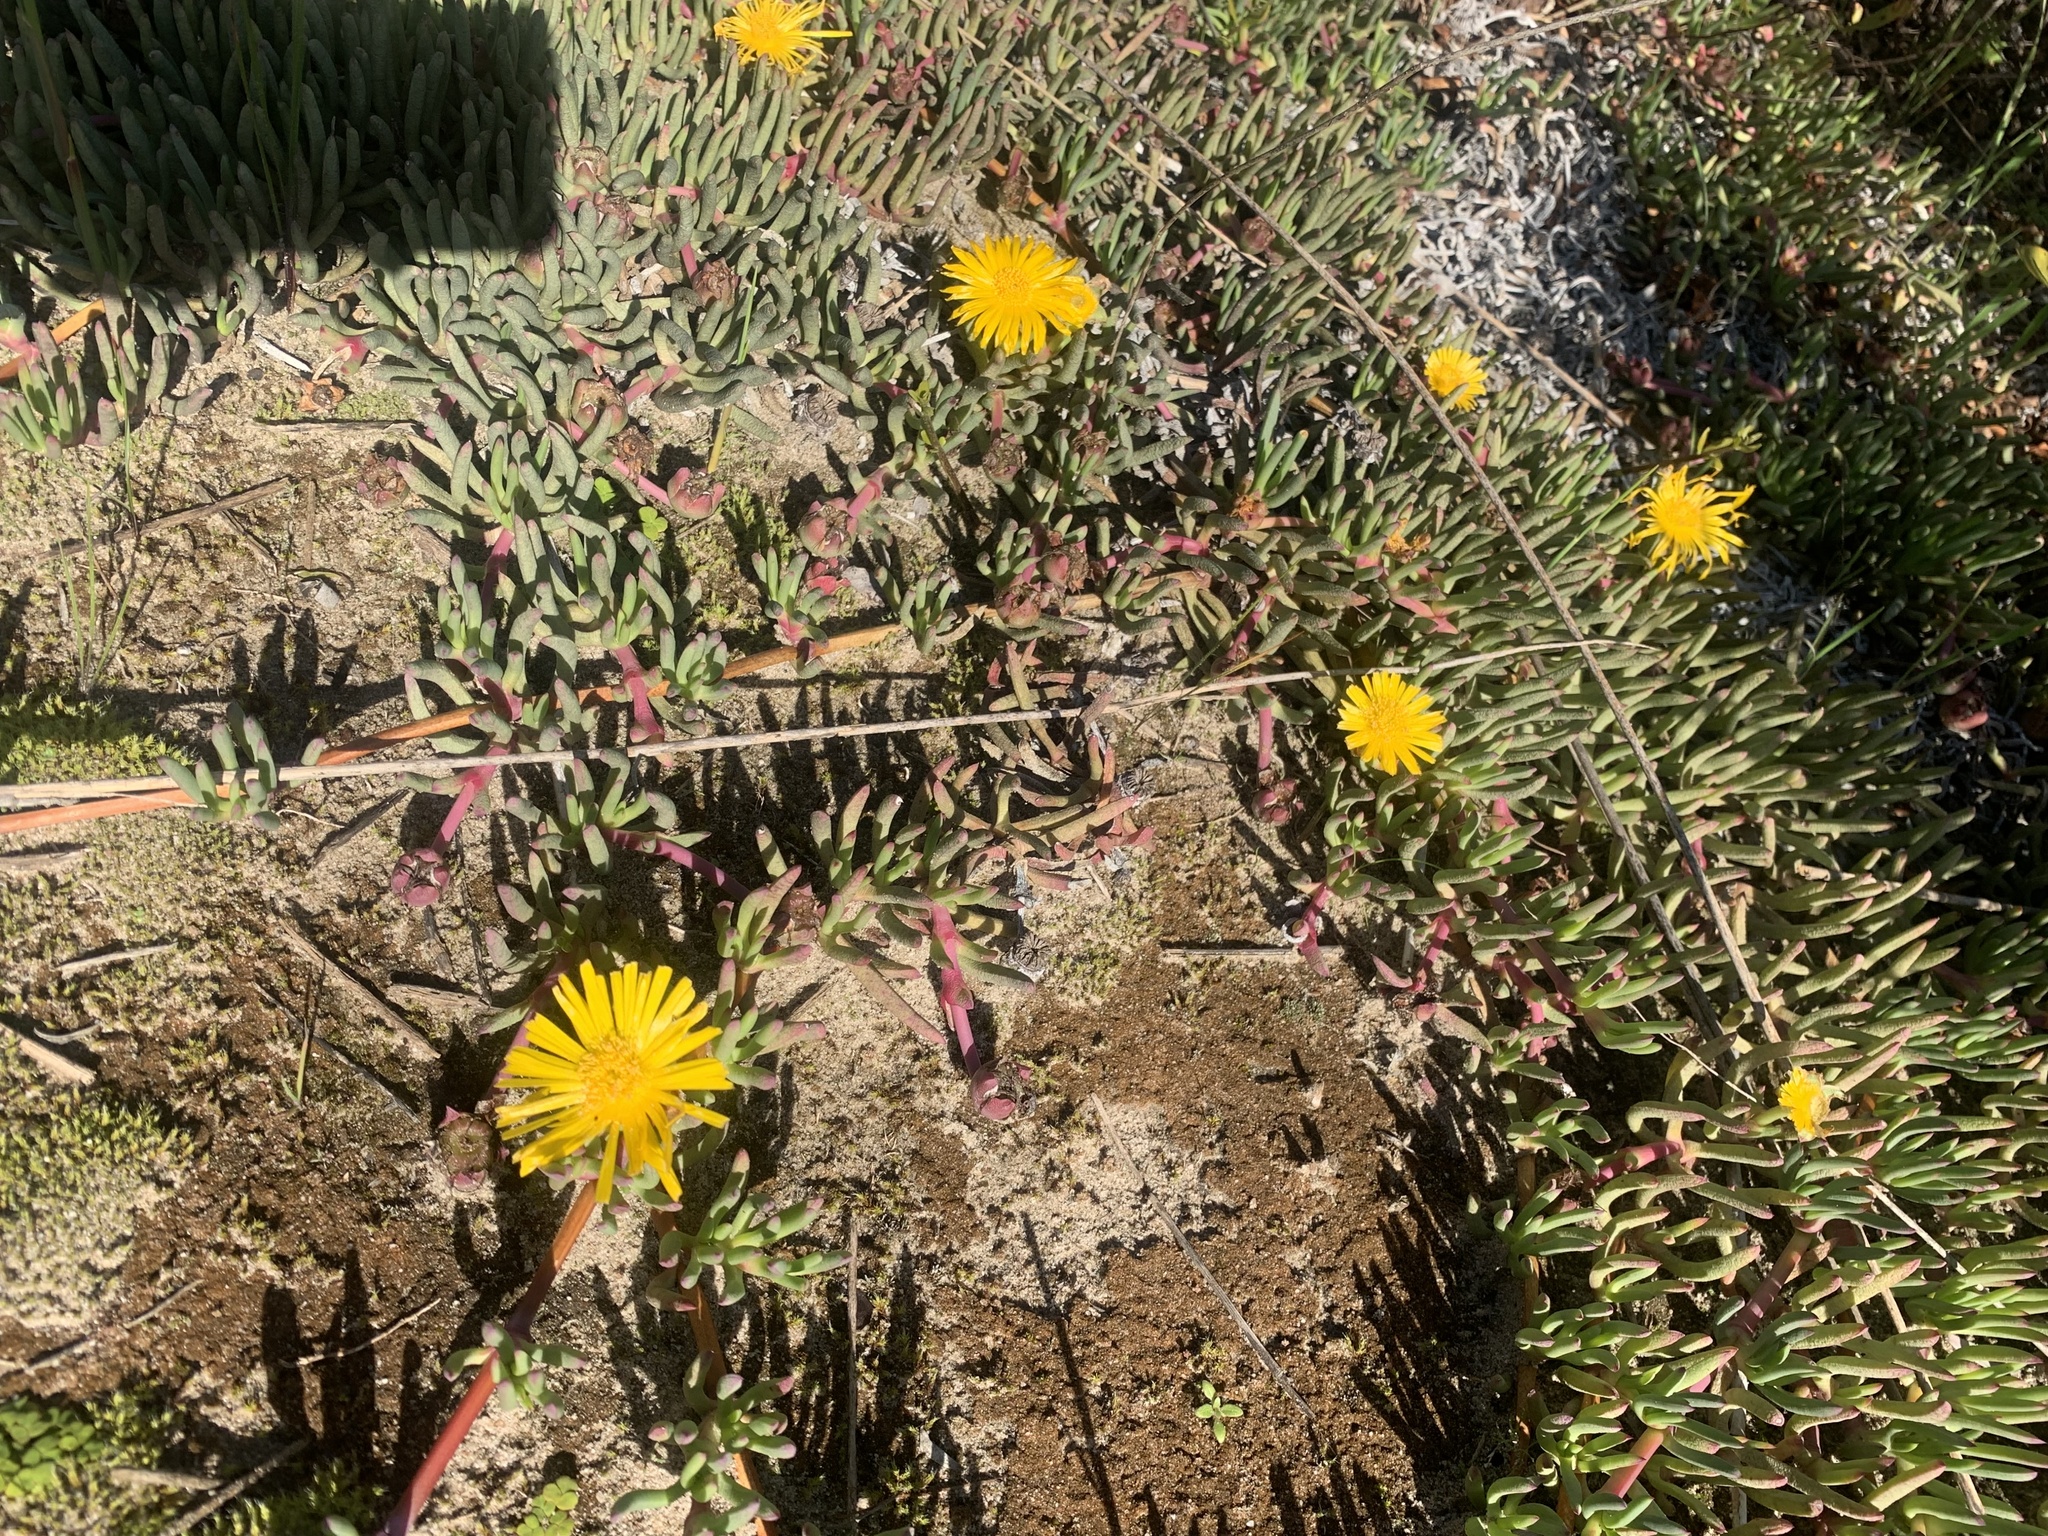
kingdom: Plantae
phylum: Tracheophyta
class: Magnoliopsida
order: Caryophyllales
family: Aizoaceae
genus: Jordaaniella
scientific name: Jordaaniella dubia
